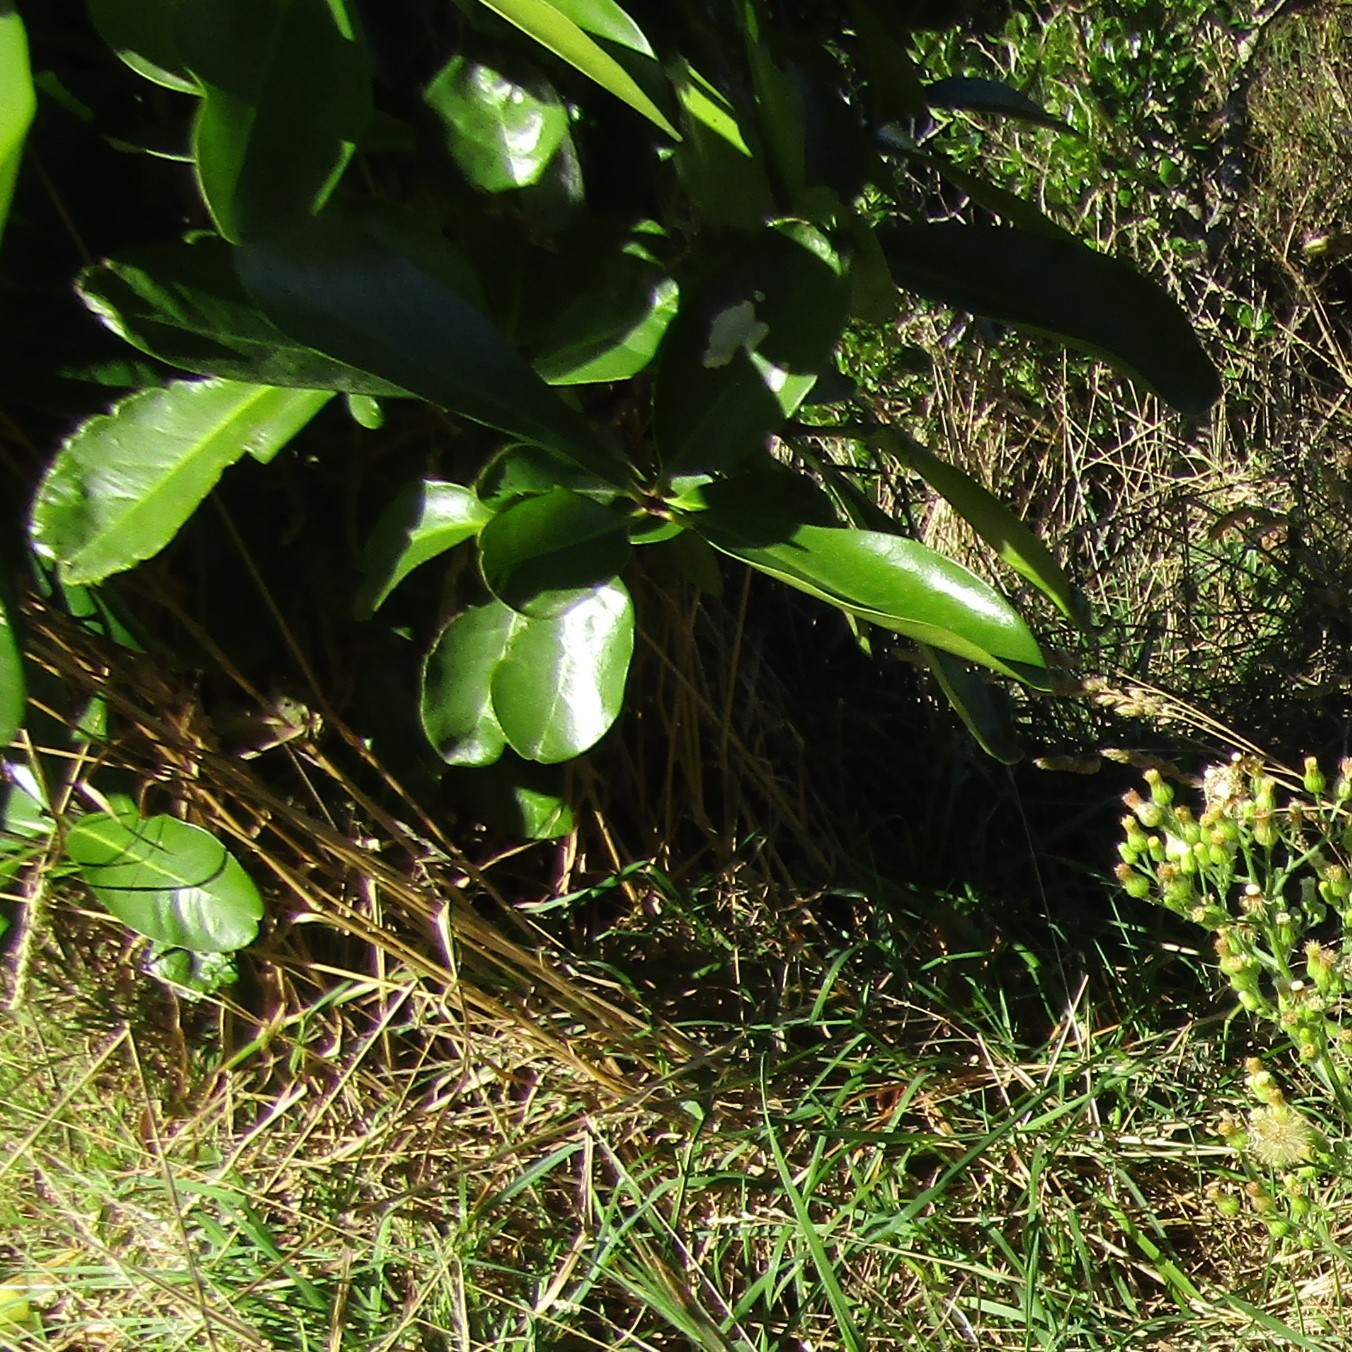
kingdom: Plantae
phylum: Tracheophyta
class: Magnoliopsida
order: Cucurbitales
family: Corynocarpaceae
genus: Corynocarpus
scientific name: Corynocarpus laevigatus
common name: New zealand laurel
